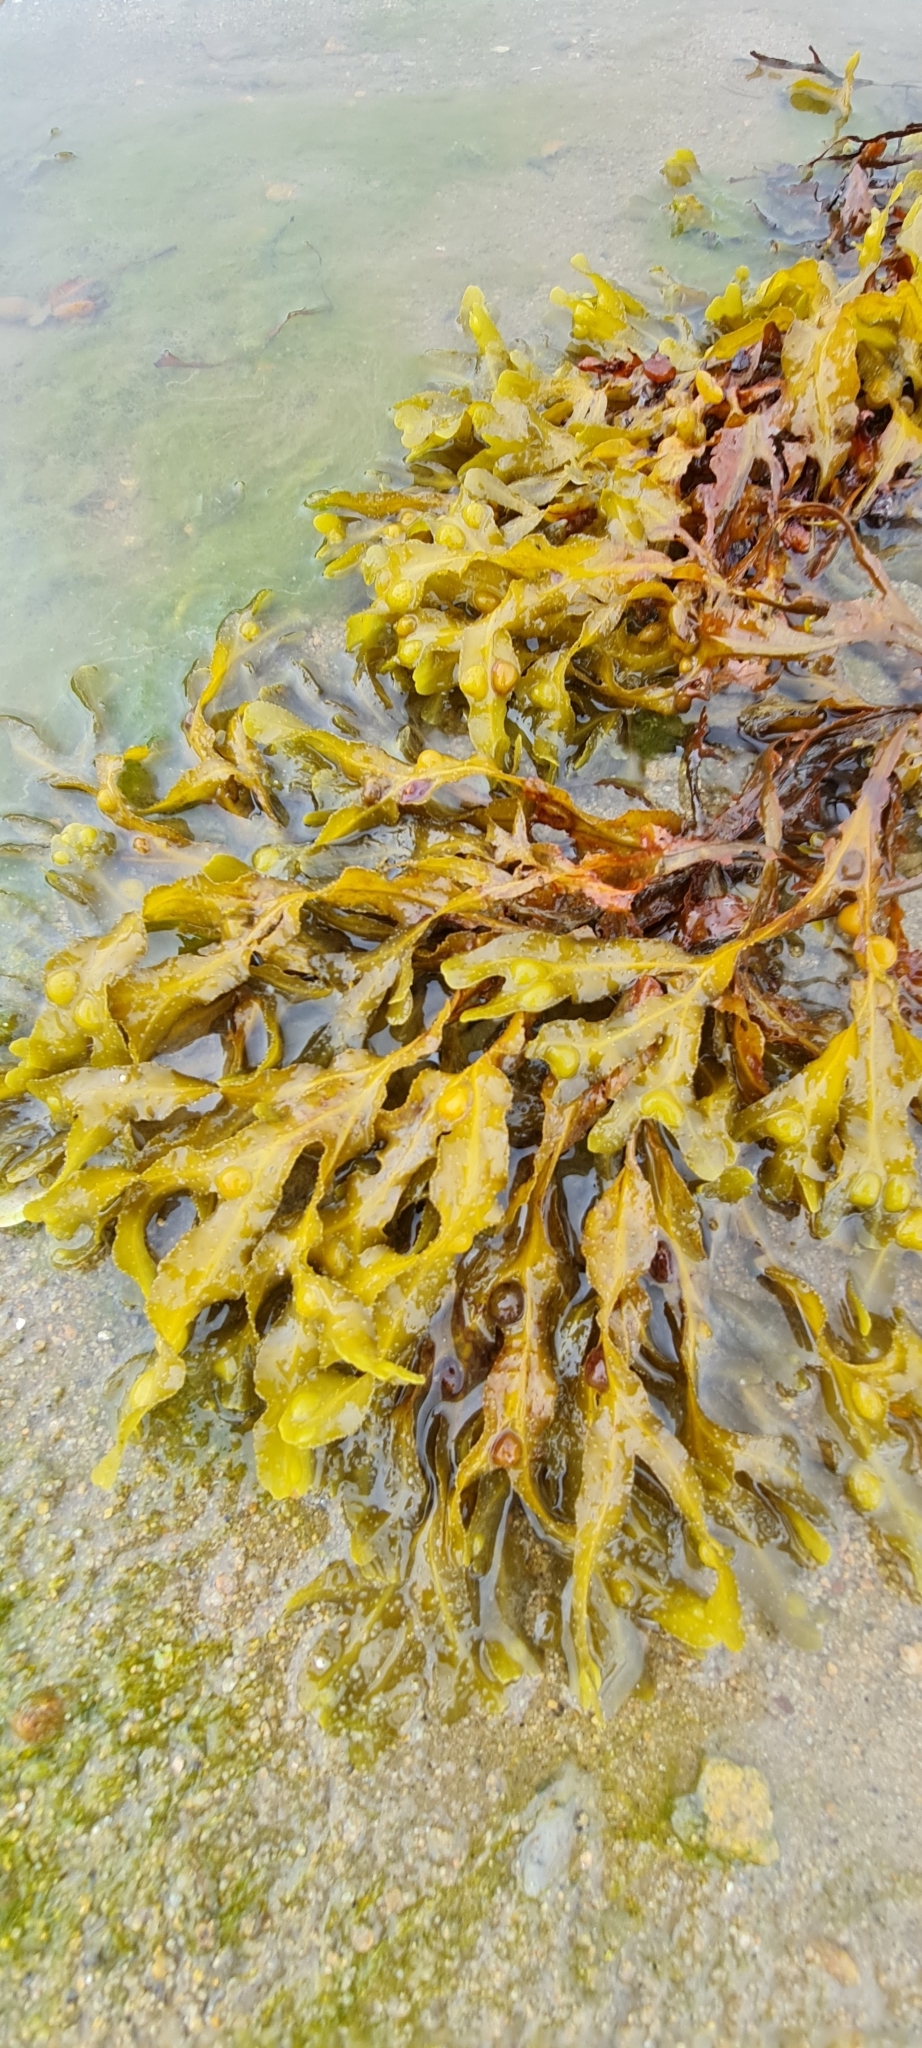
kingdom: Chromista
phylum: Ochrophyta
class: Phaeophyceae
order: Fucales
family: Fucaceae
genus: Fucus
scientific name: Fucus vesiculosus
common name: Bladder wrack
